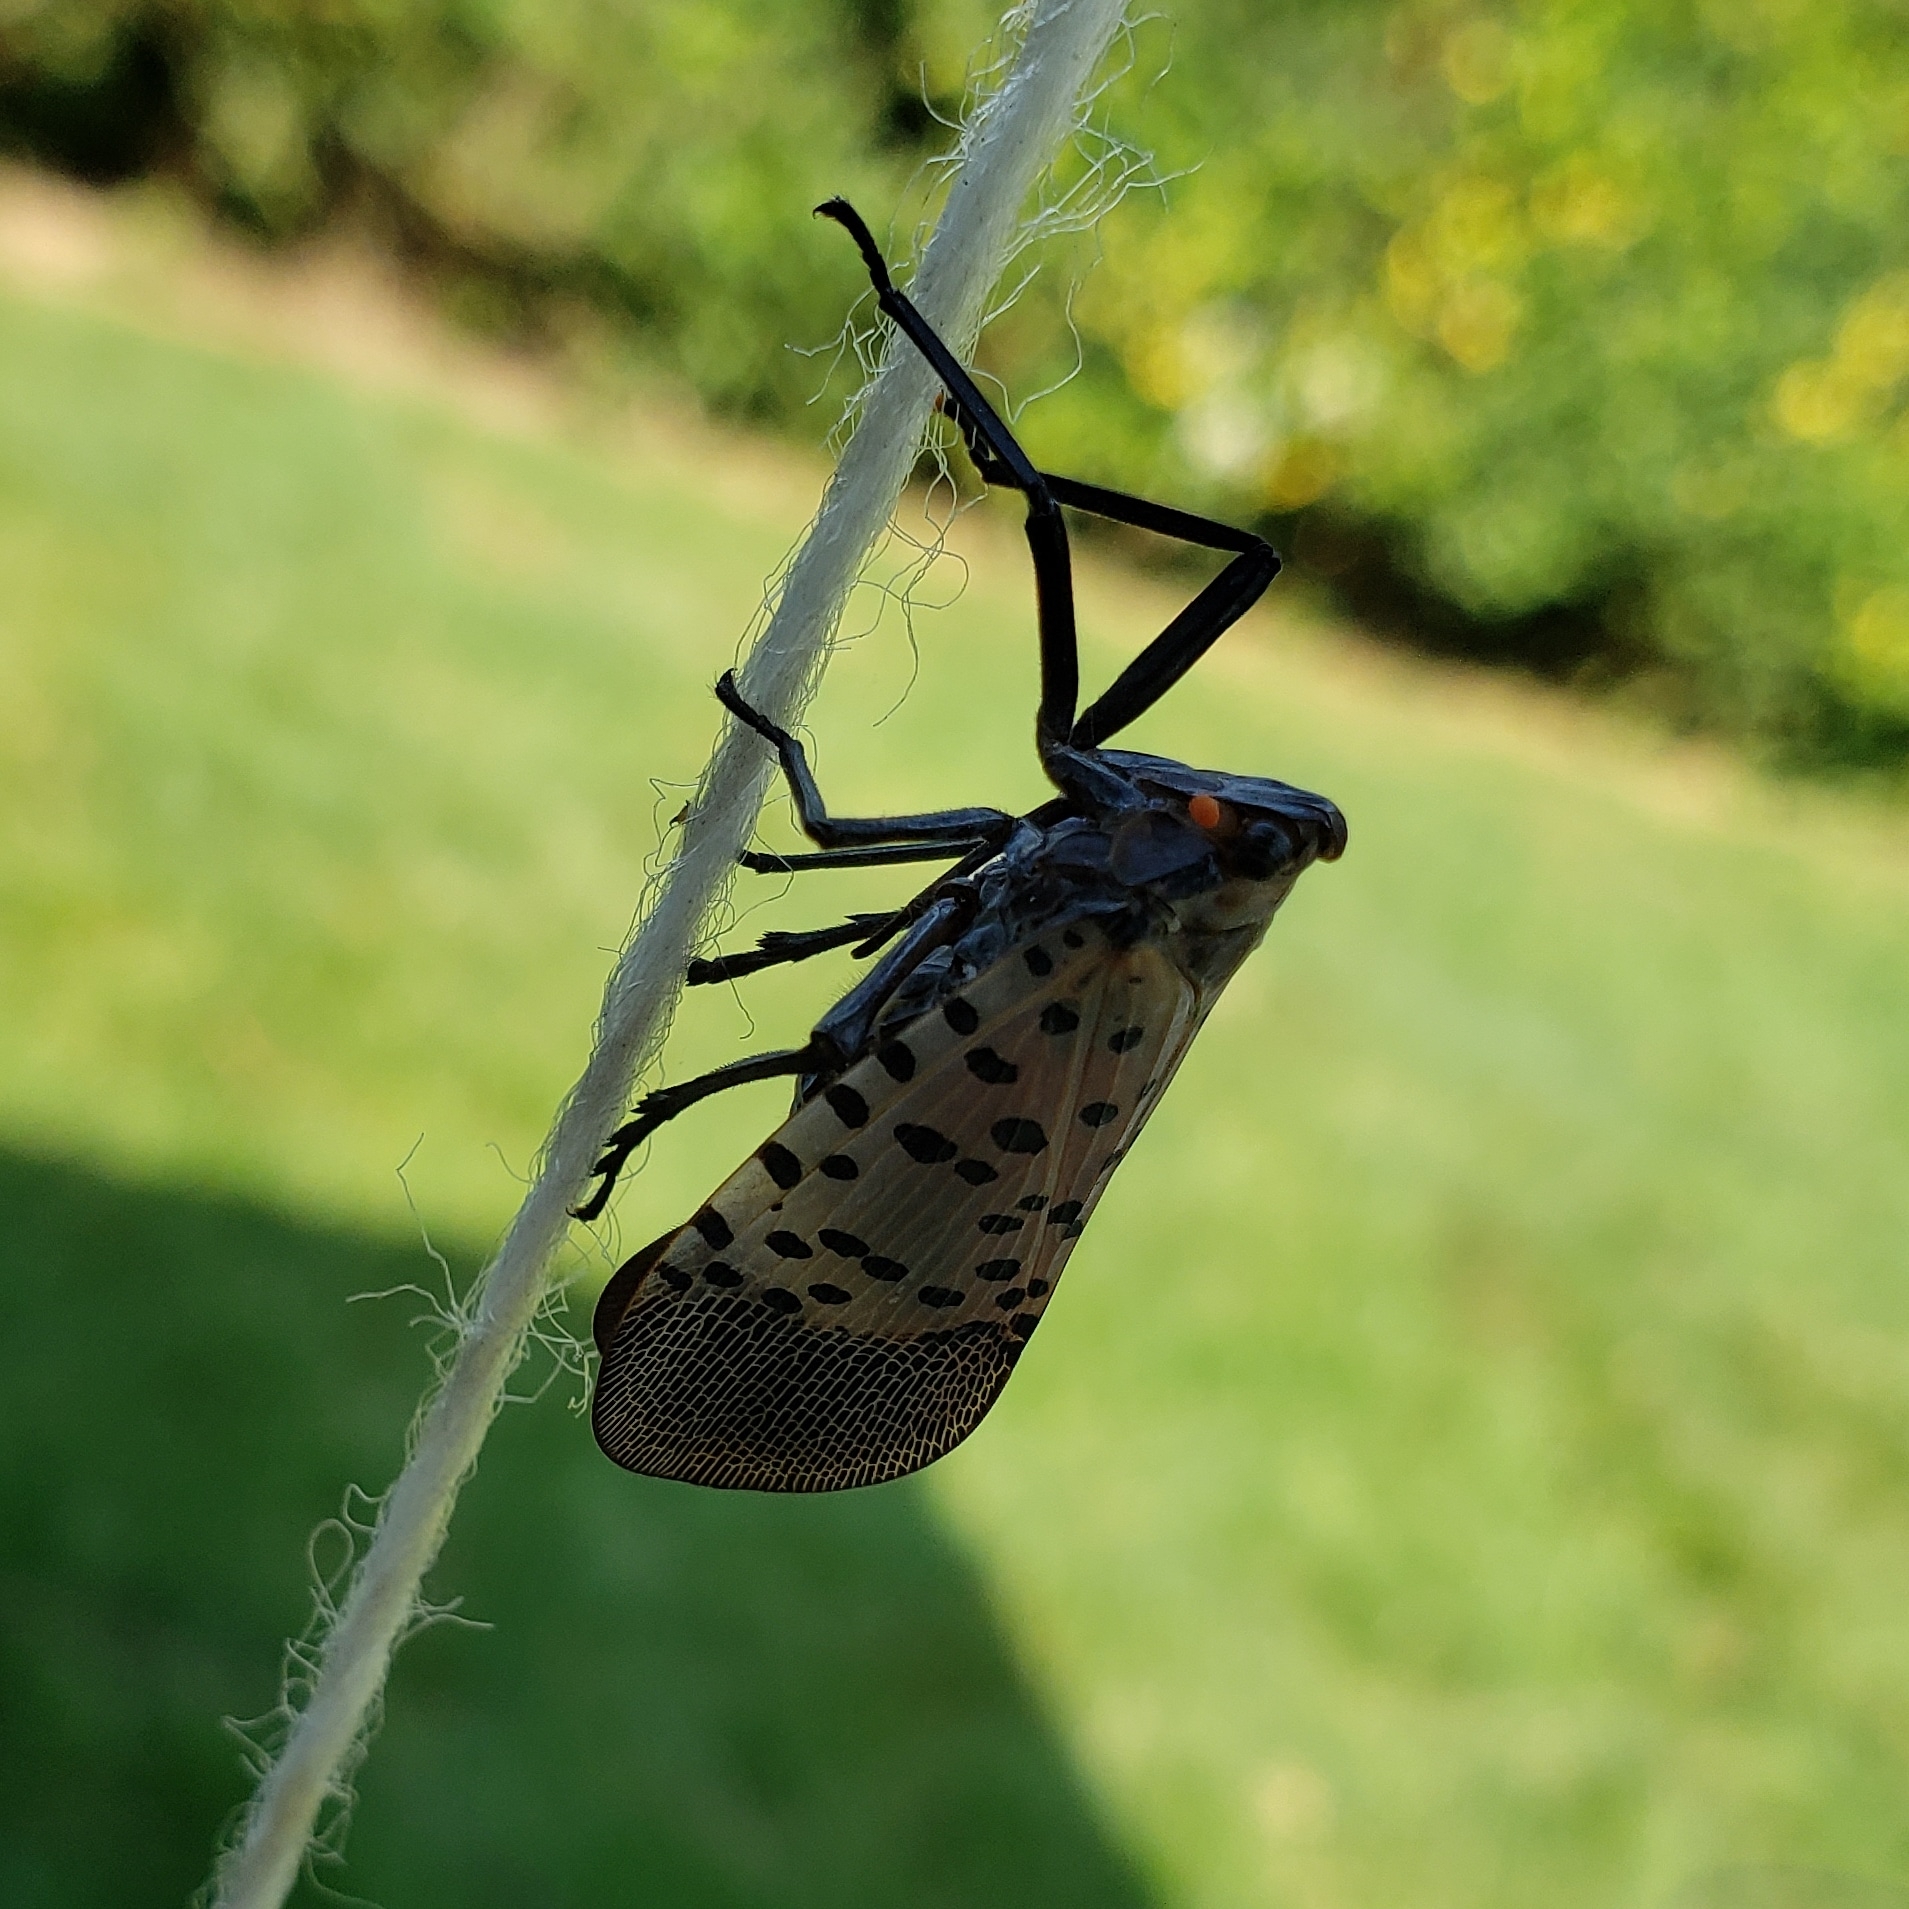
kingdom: Animalia
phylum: Arthropoda
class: Insecta
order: Hemiptera
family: Fulgoridae
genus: Lycorma
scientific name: Lycorma delicatula
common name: Spotted lanternfly
